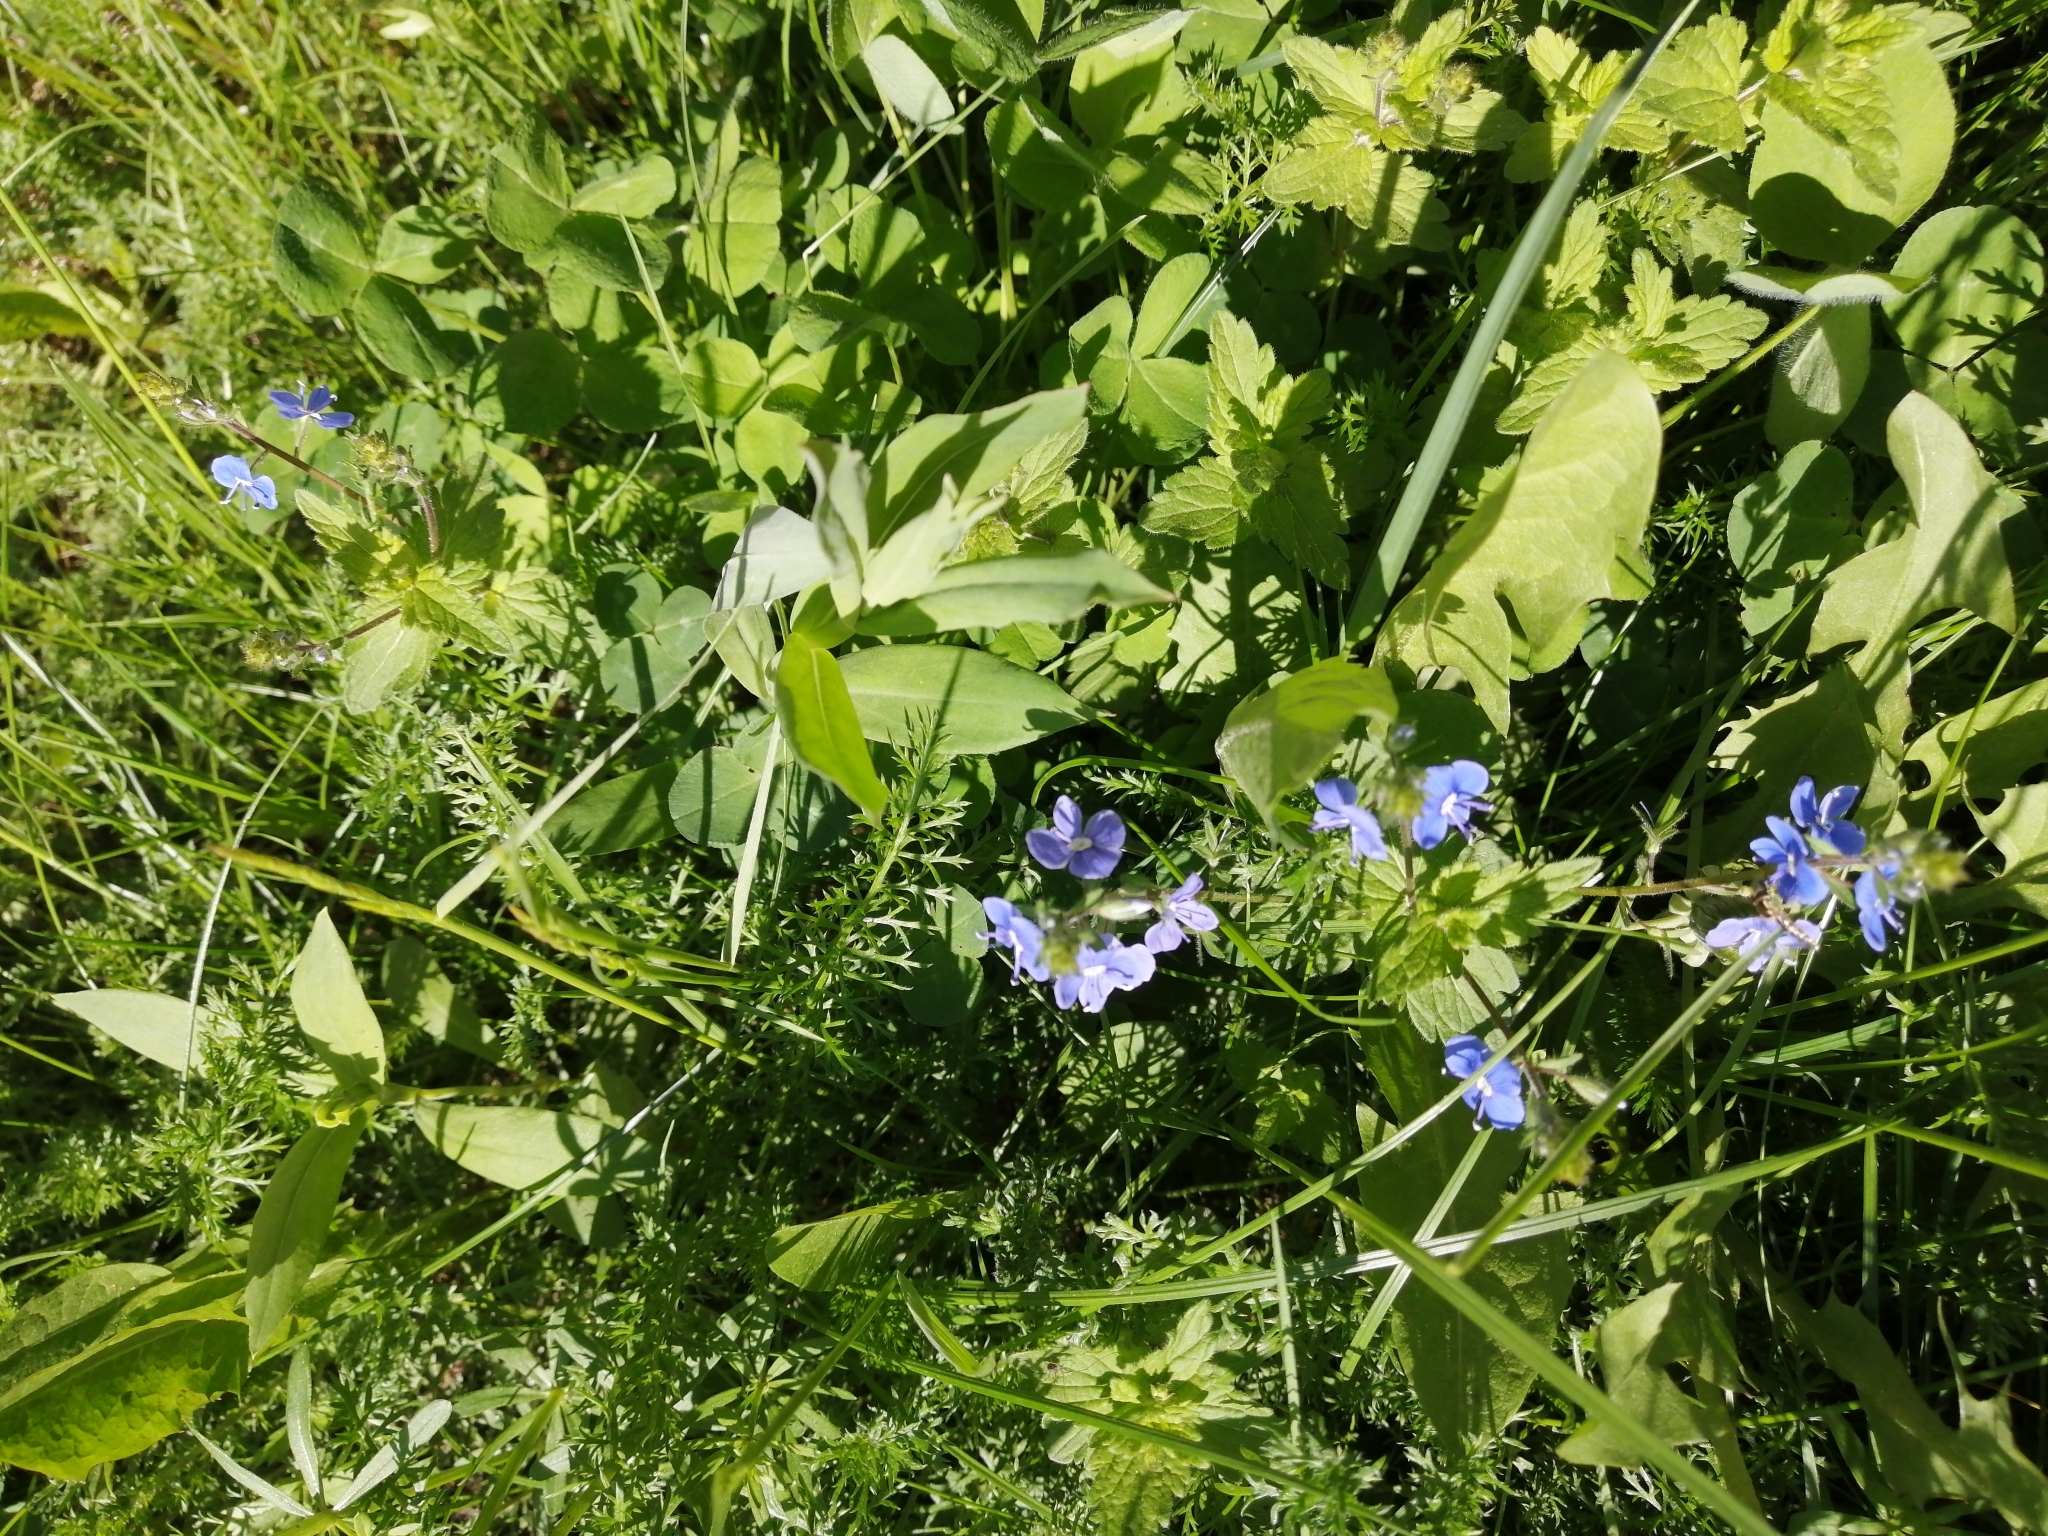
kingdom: Plantae
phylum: Tracheophyta
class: Magnoliopsida
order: Lamiales
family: Plantaginaceae
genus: Veronica
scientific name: Veronica chamaedrys
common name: Germander speedwell
